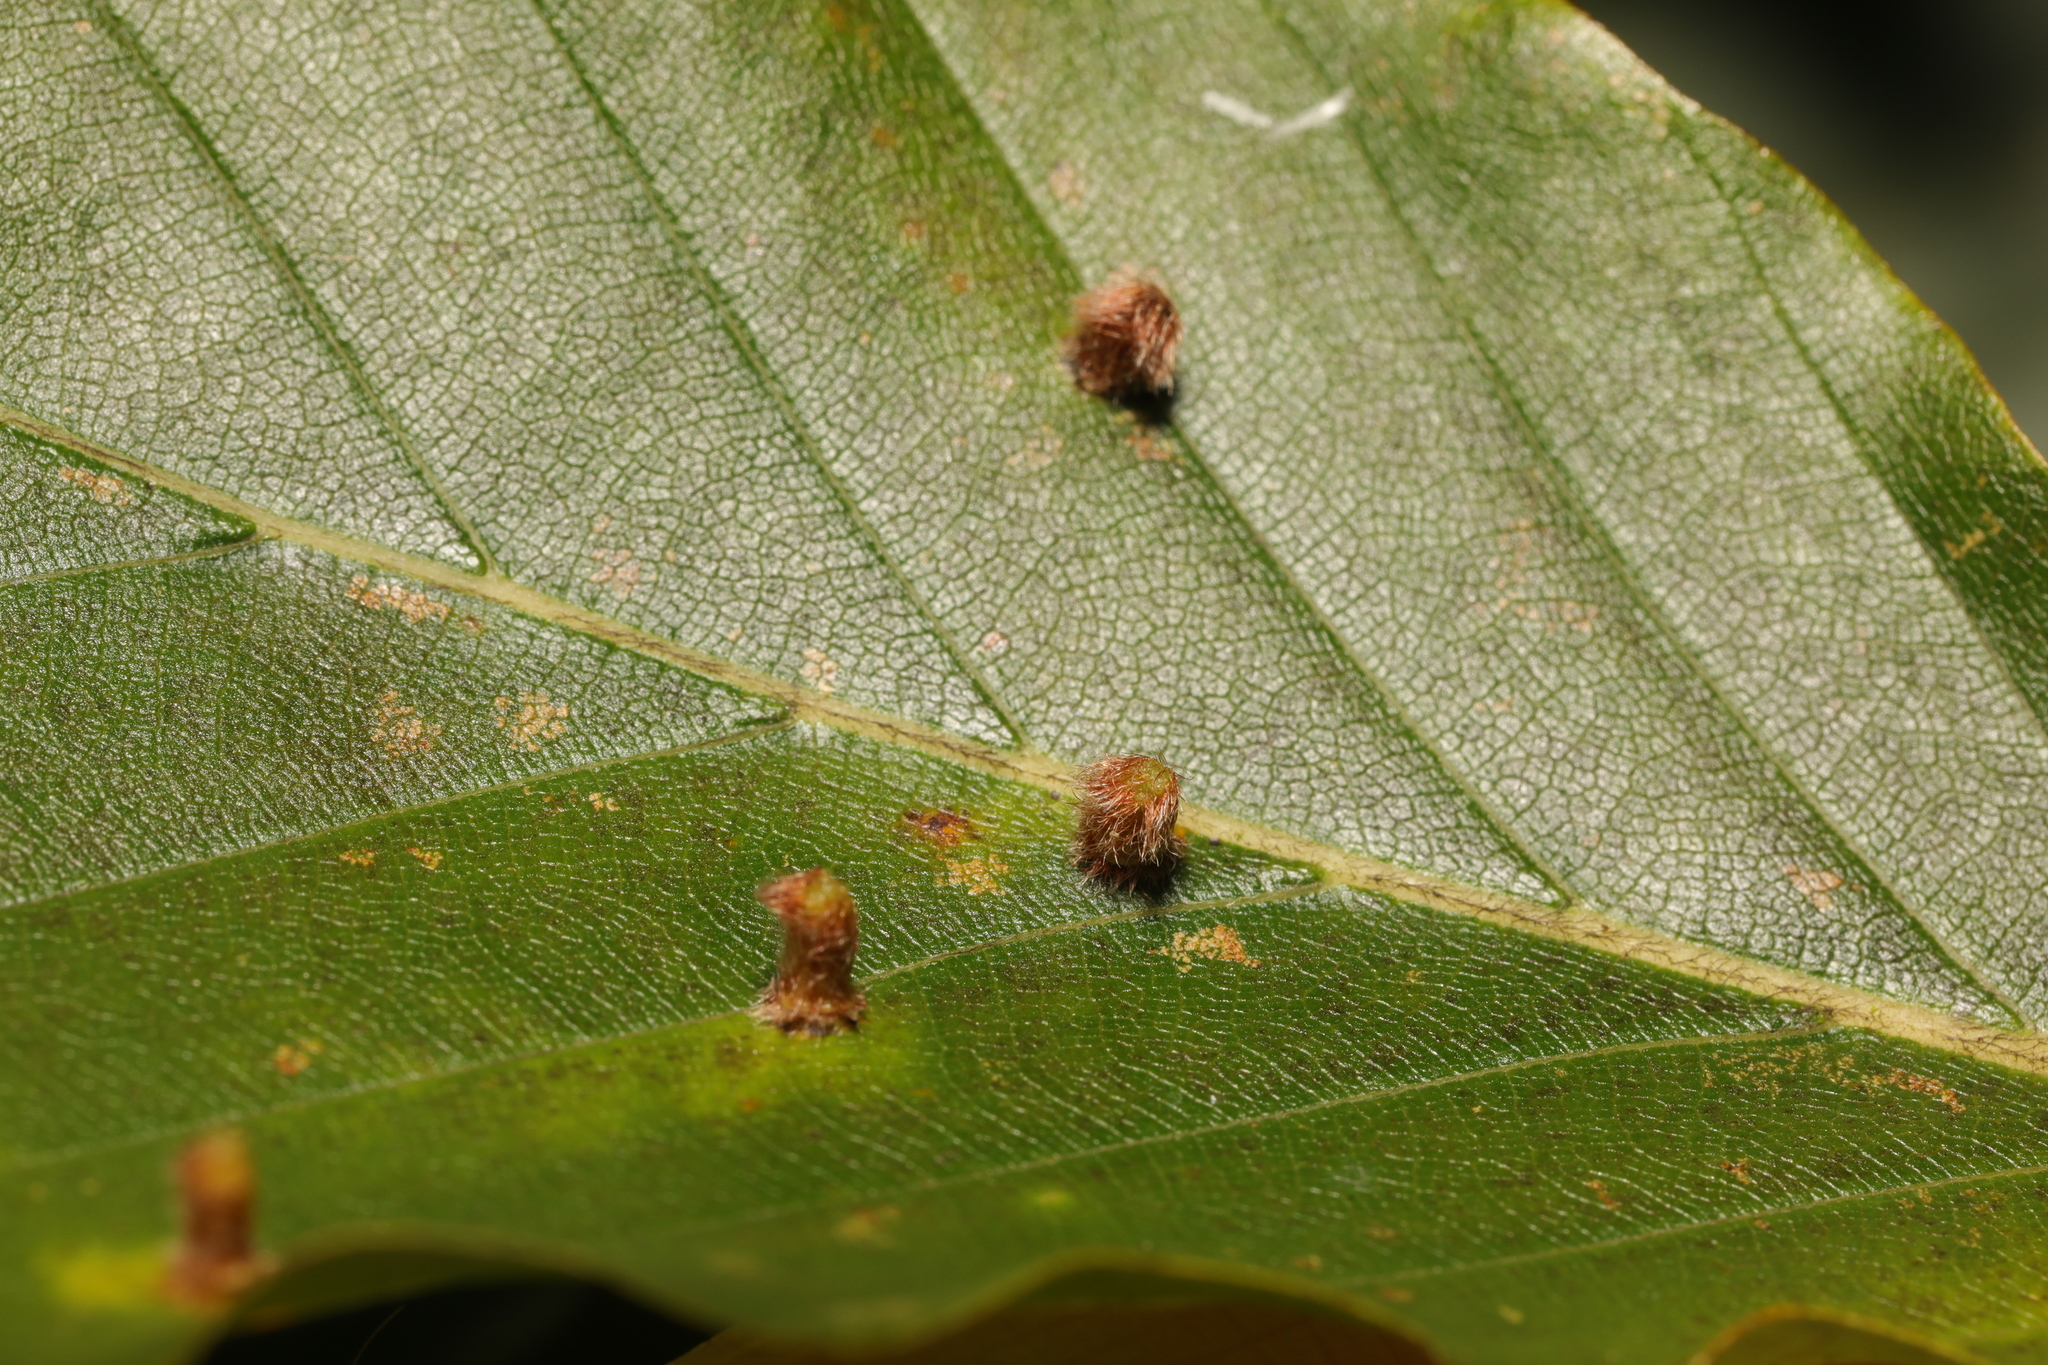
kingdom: Animalia
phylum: Arthropoda
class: Insecta
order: Diptera
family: Cecidomyiidae
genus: Hartigiola
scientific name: Hartigiola annulipes
